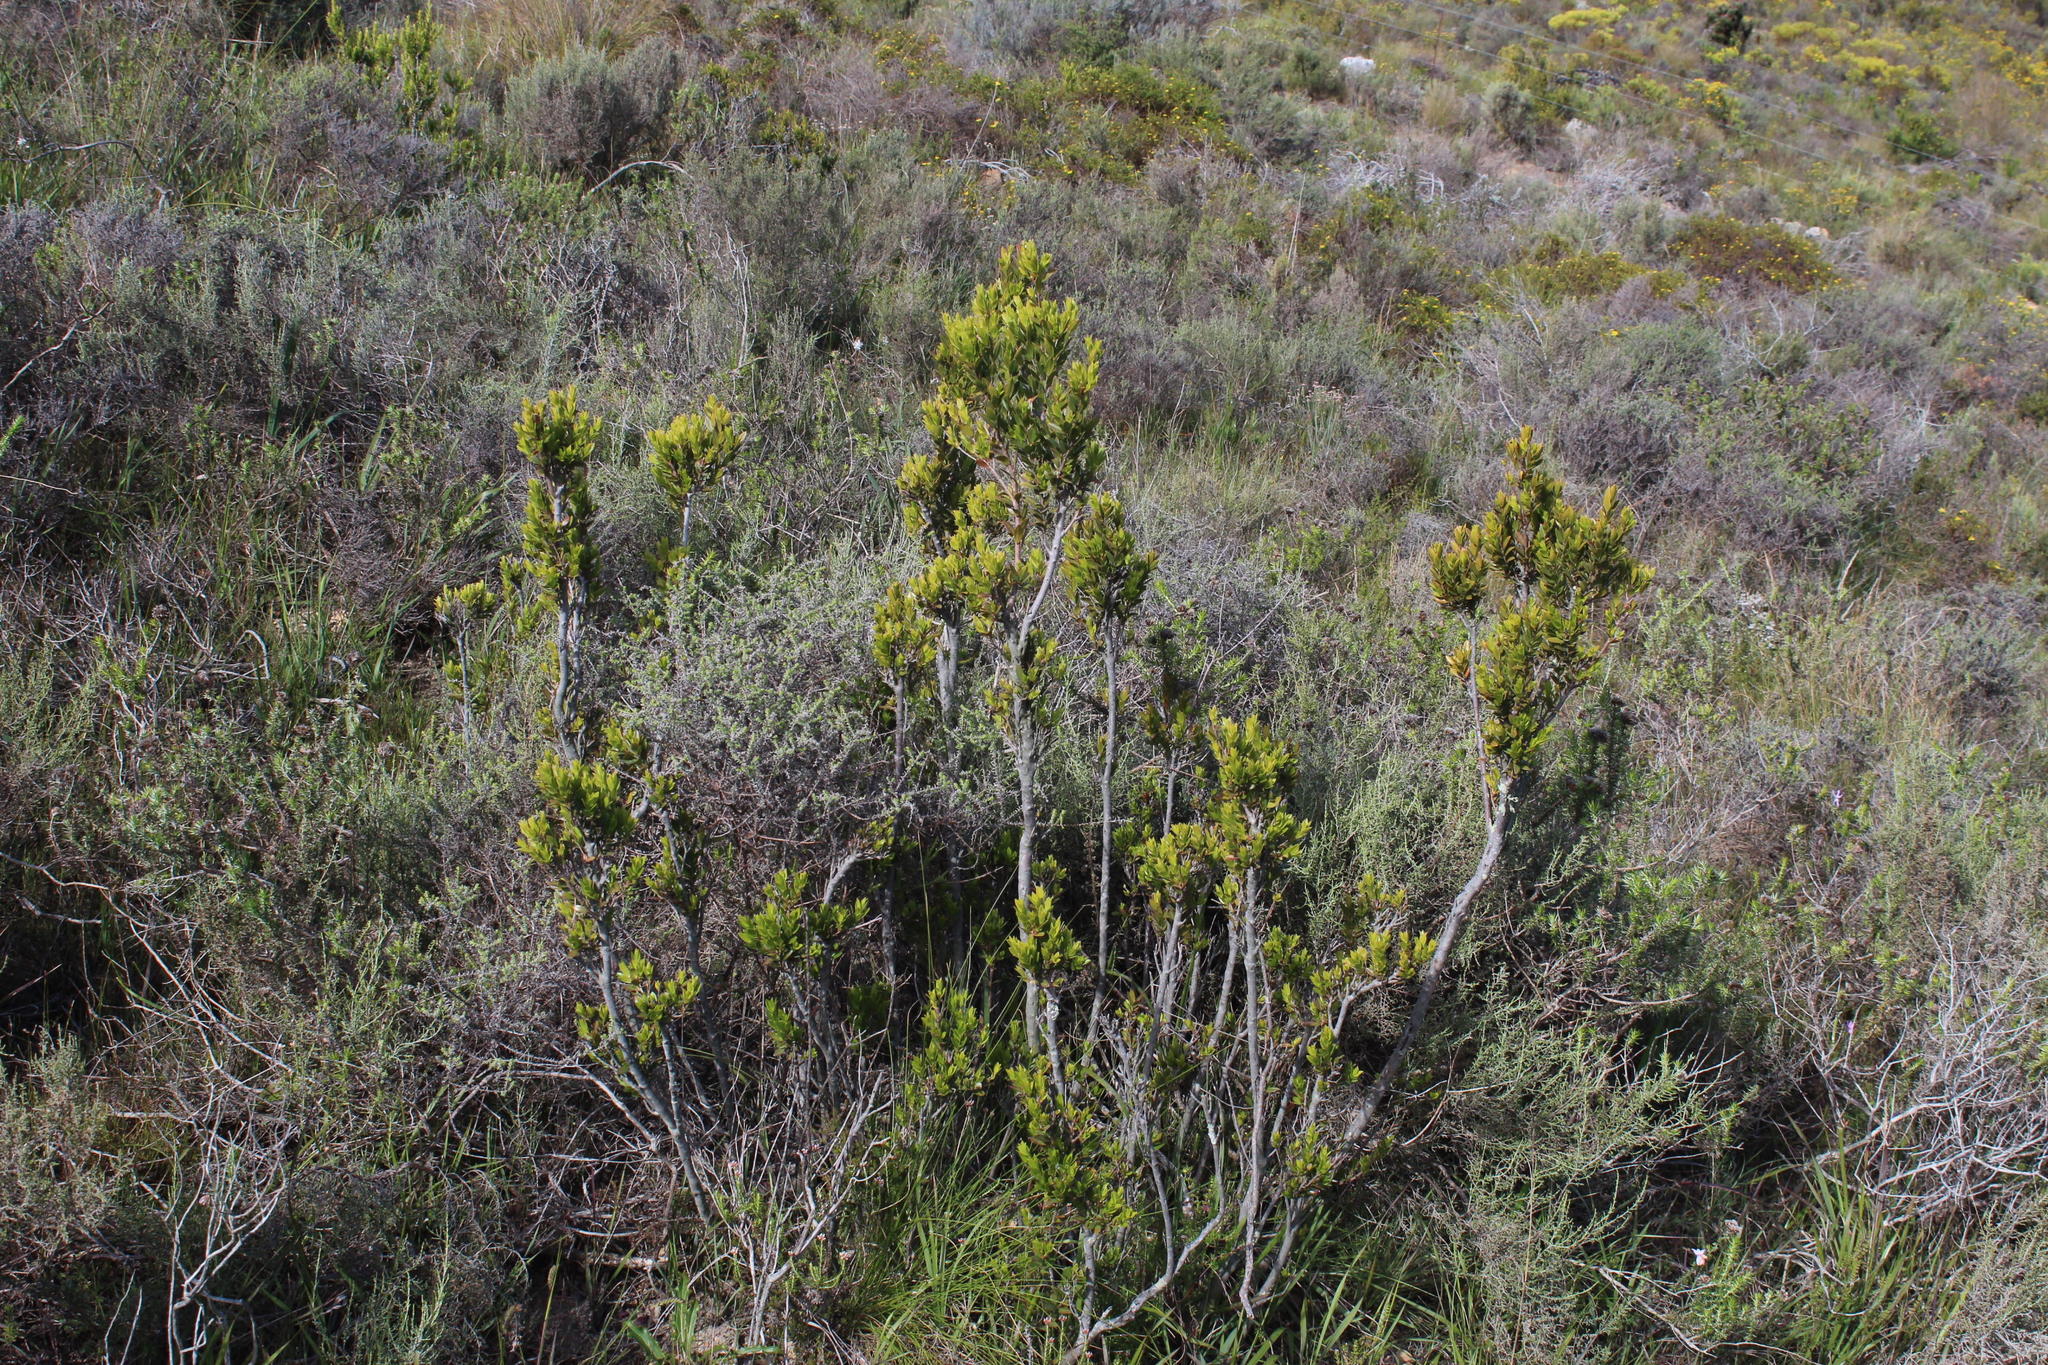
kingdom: Plantae
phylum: Tracheophyta
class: Magnoliopsida
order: Ericales
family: Ebenaceae
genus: Diospyros
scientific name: Diospyros glabra
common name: Fynbos star apple
